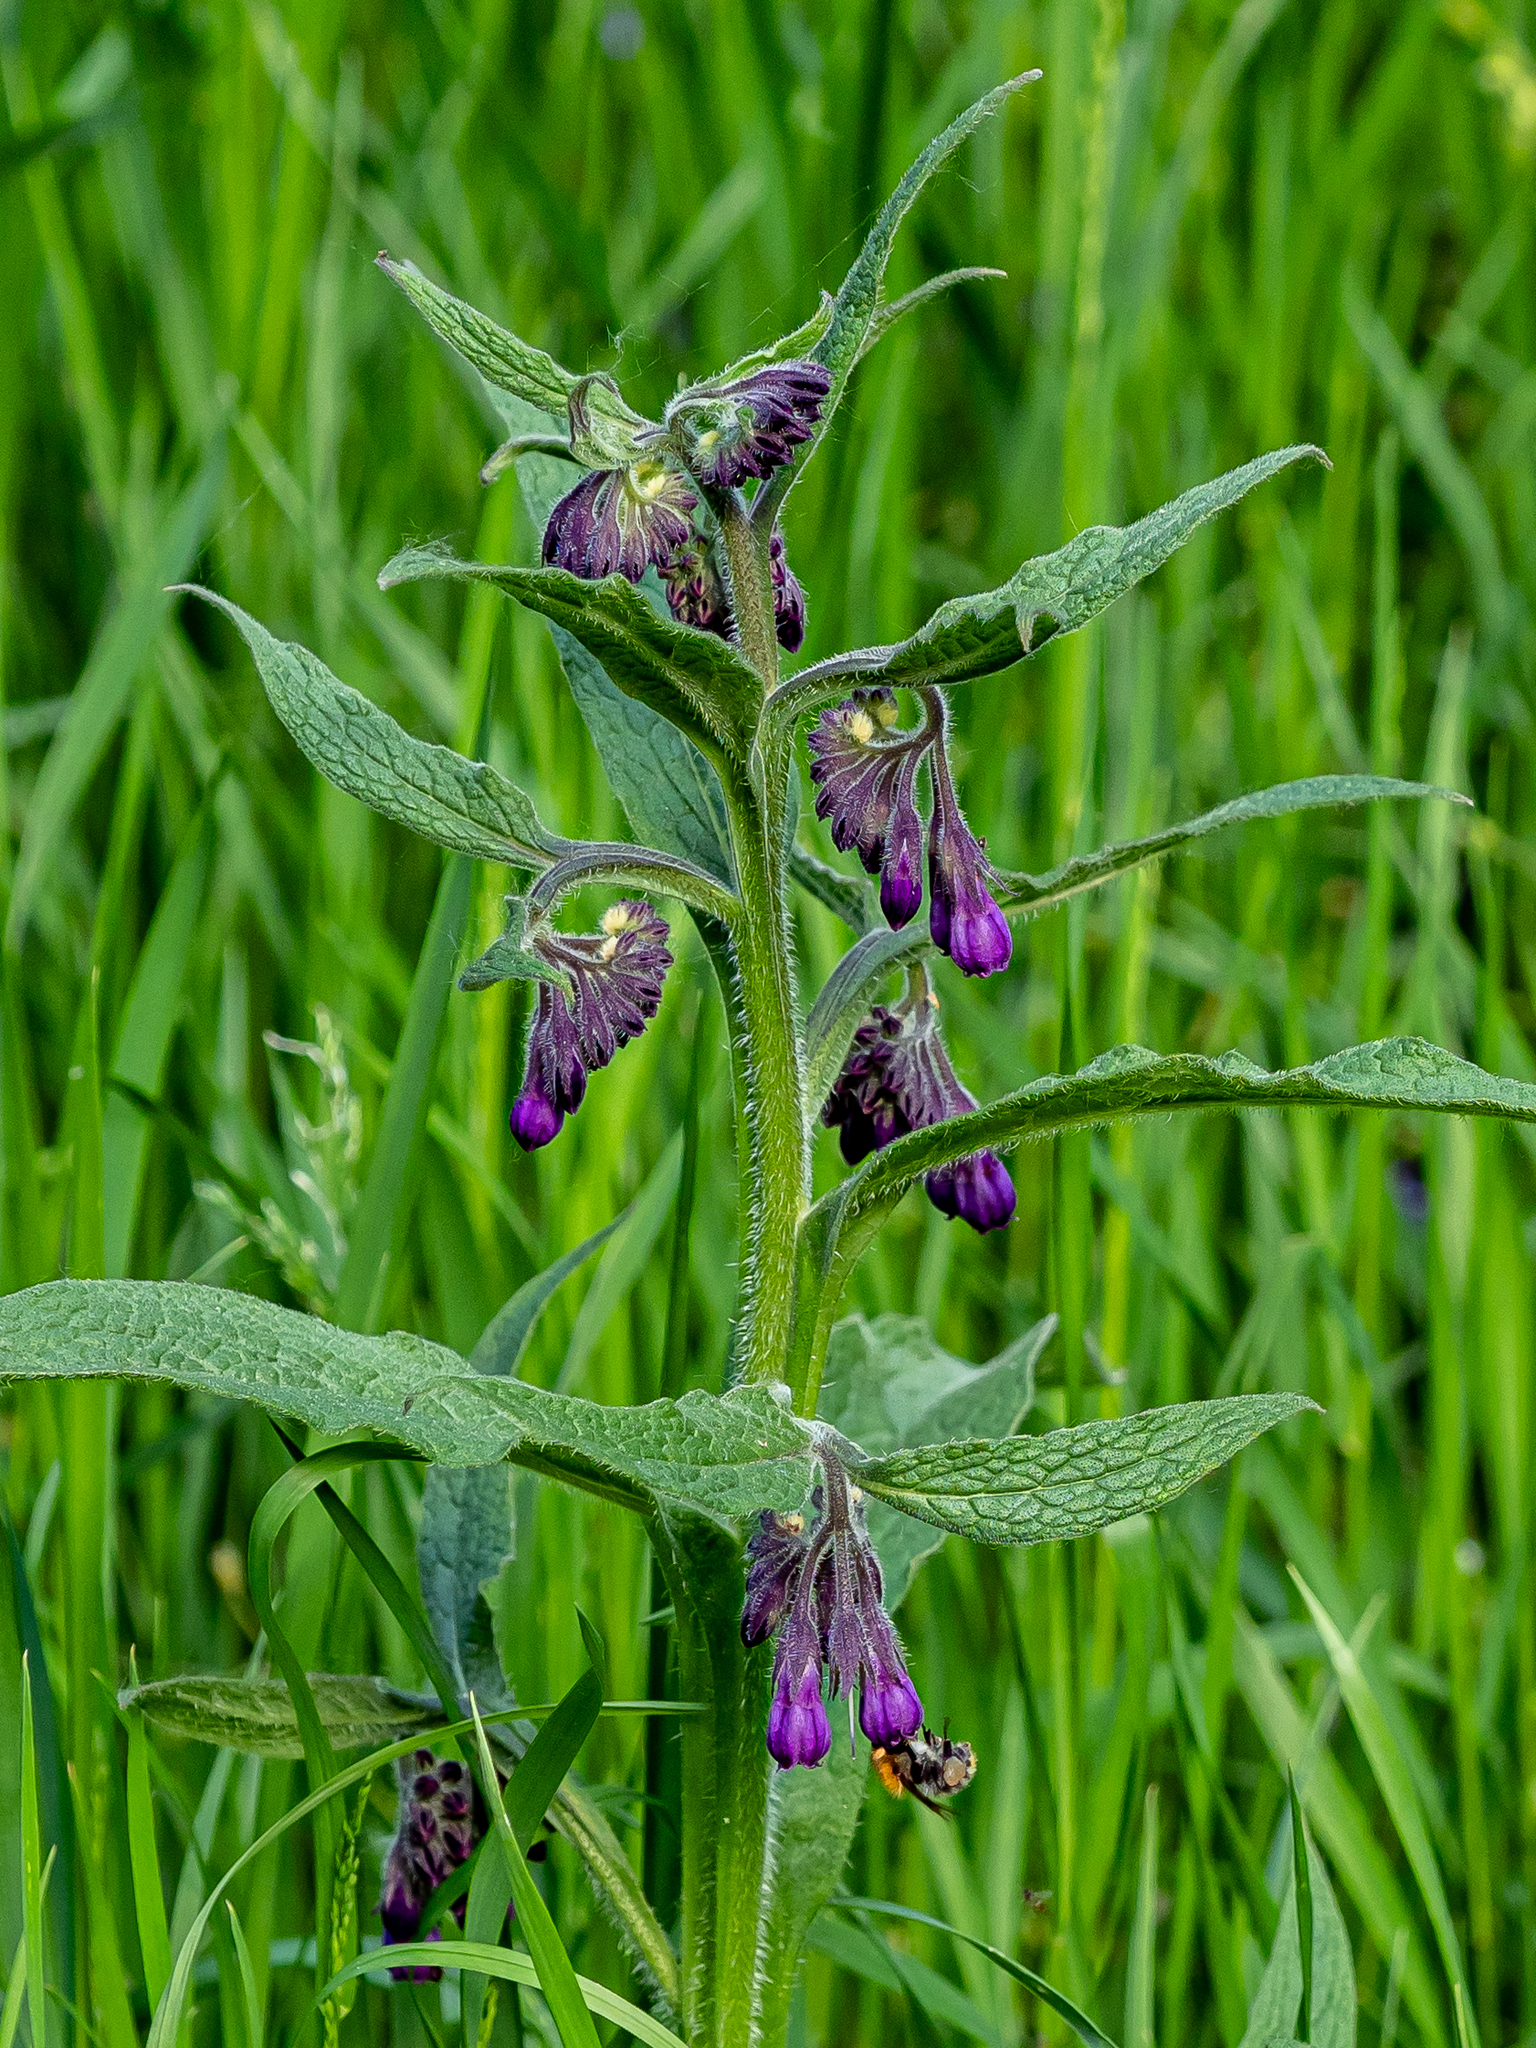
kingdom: Plantae
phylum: Tracheophyta
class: Magnoliopsida
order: Boraginales
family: Boraginaceae
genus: Symphytum
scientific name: Symphytum officinale
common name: Common comfrey
